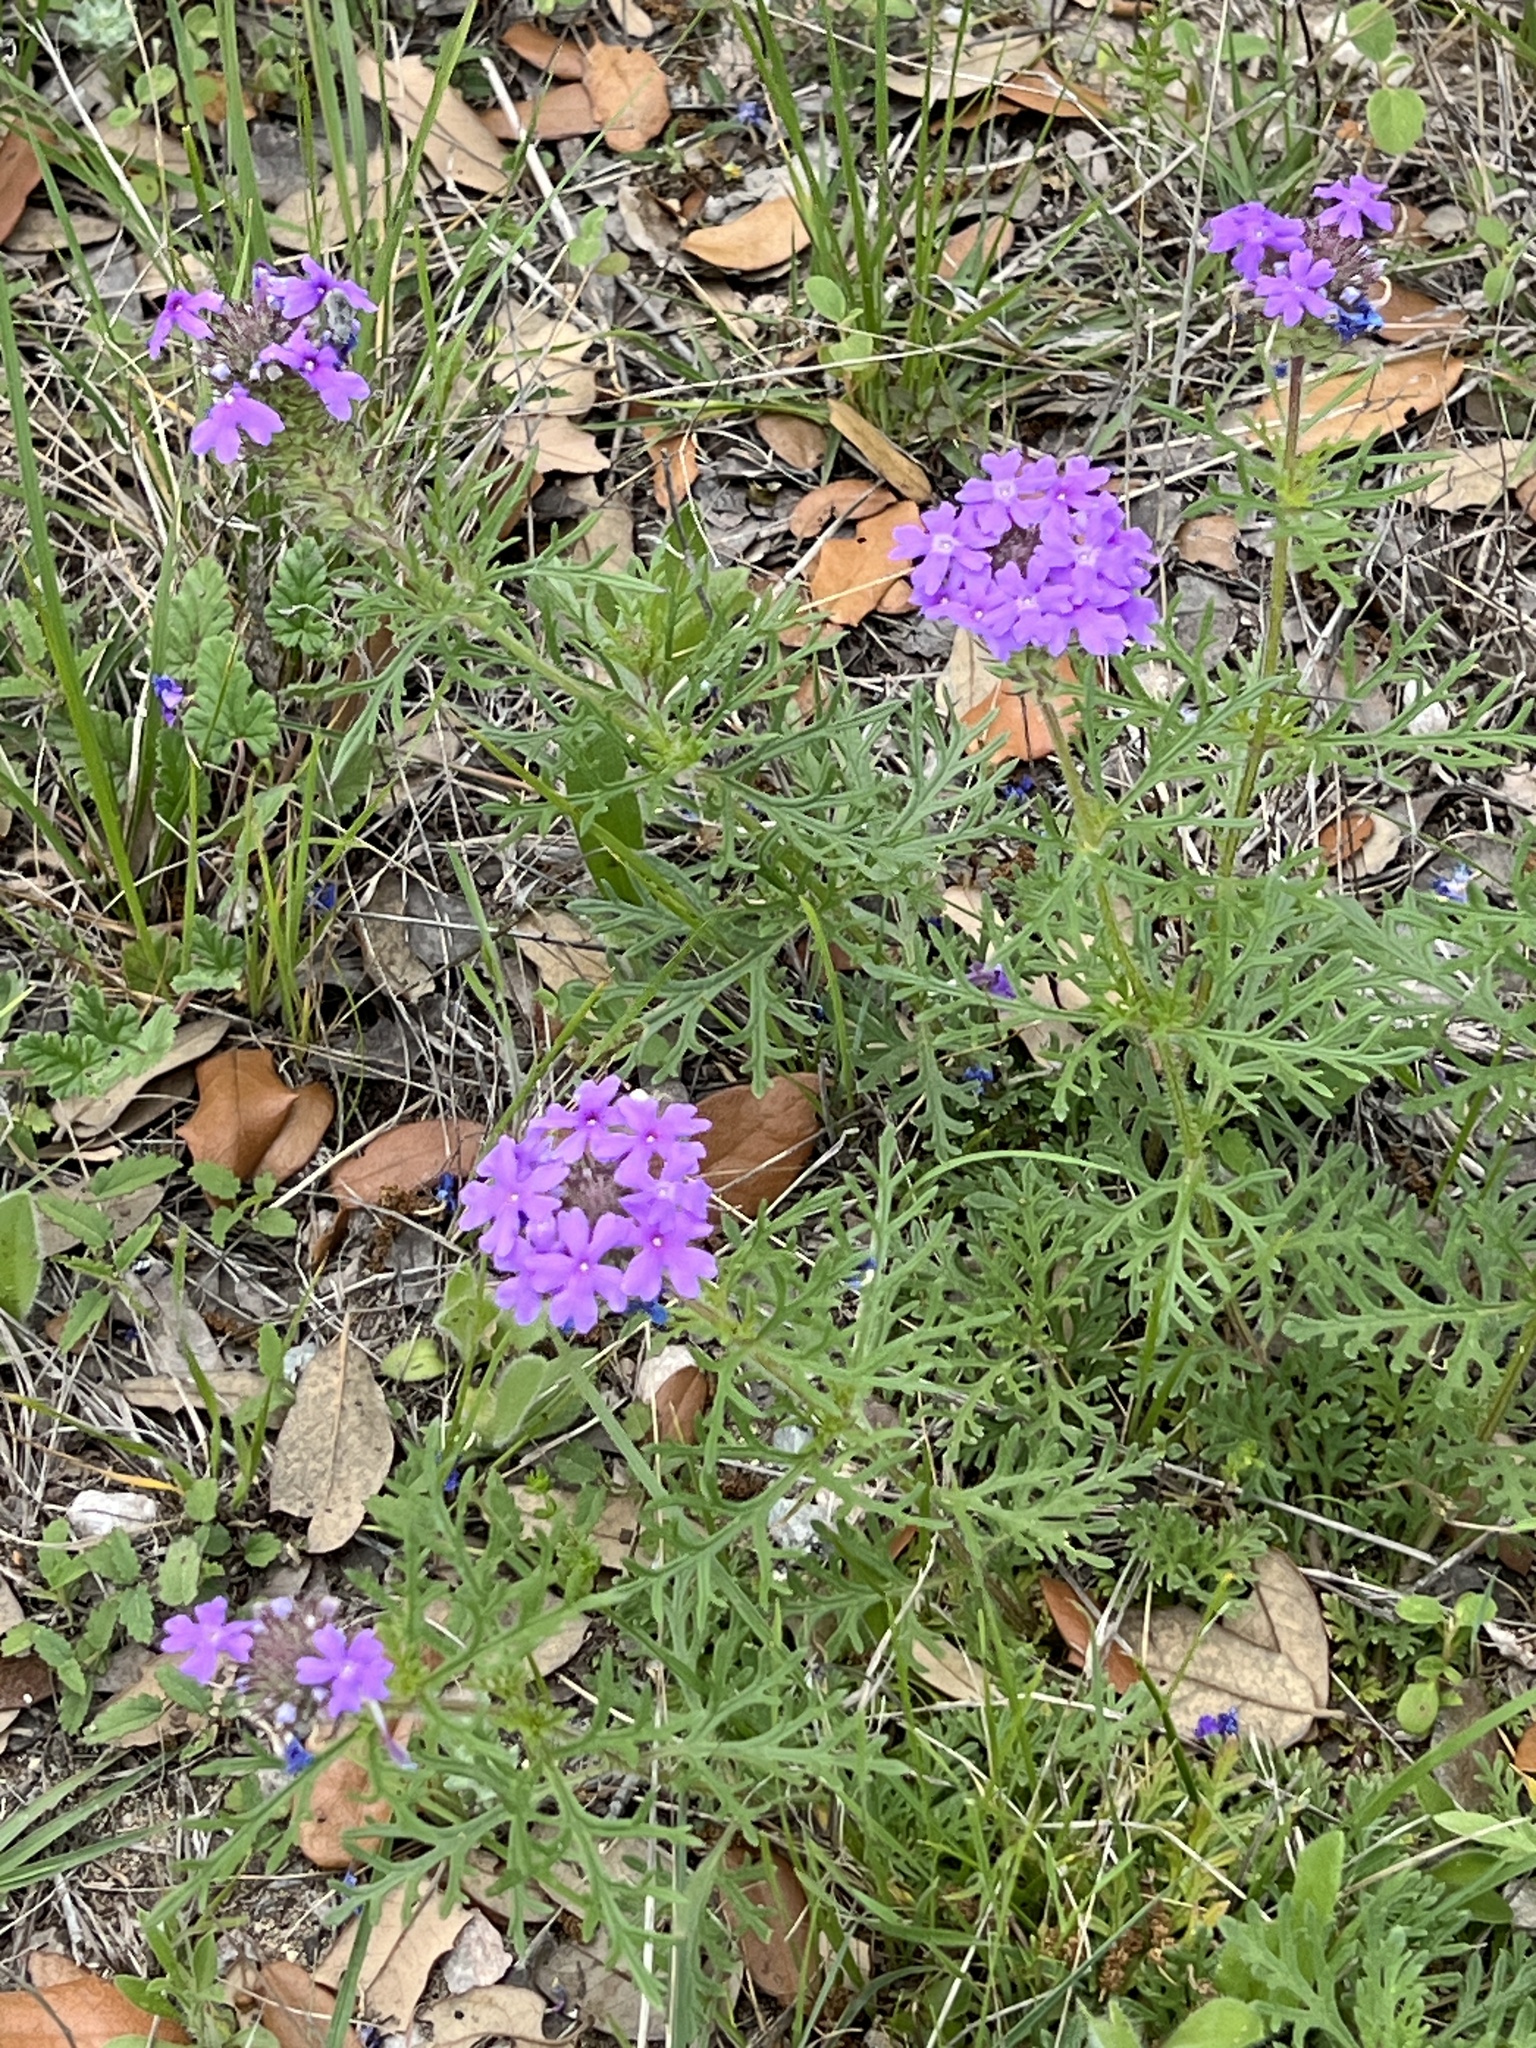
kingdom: Plantae
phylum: Tracheophyta
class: Magnoliopsida
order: Lamiales
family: Verbenaceae
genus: Verbena
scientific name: Verbena bipinnatifida
